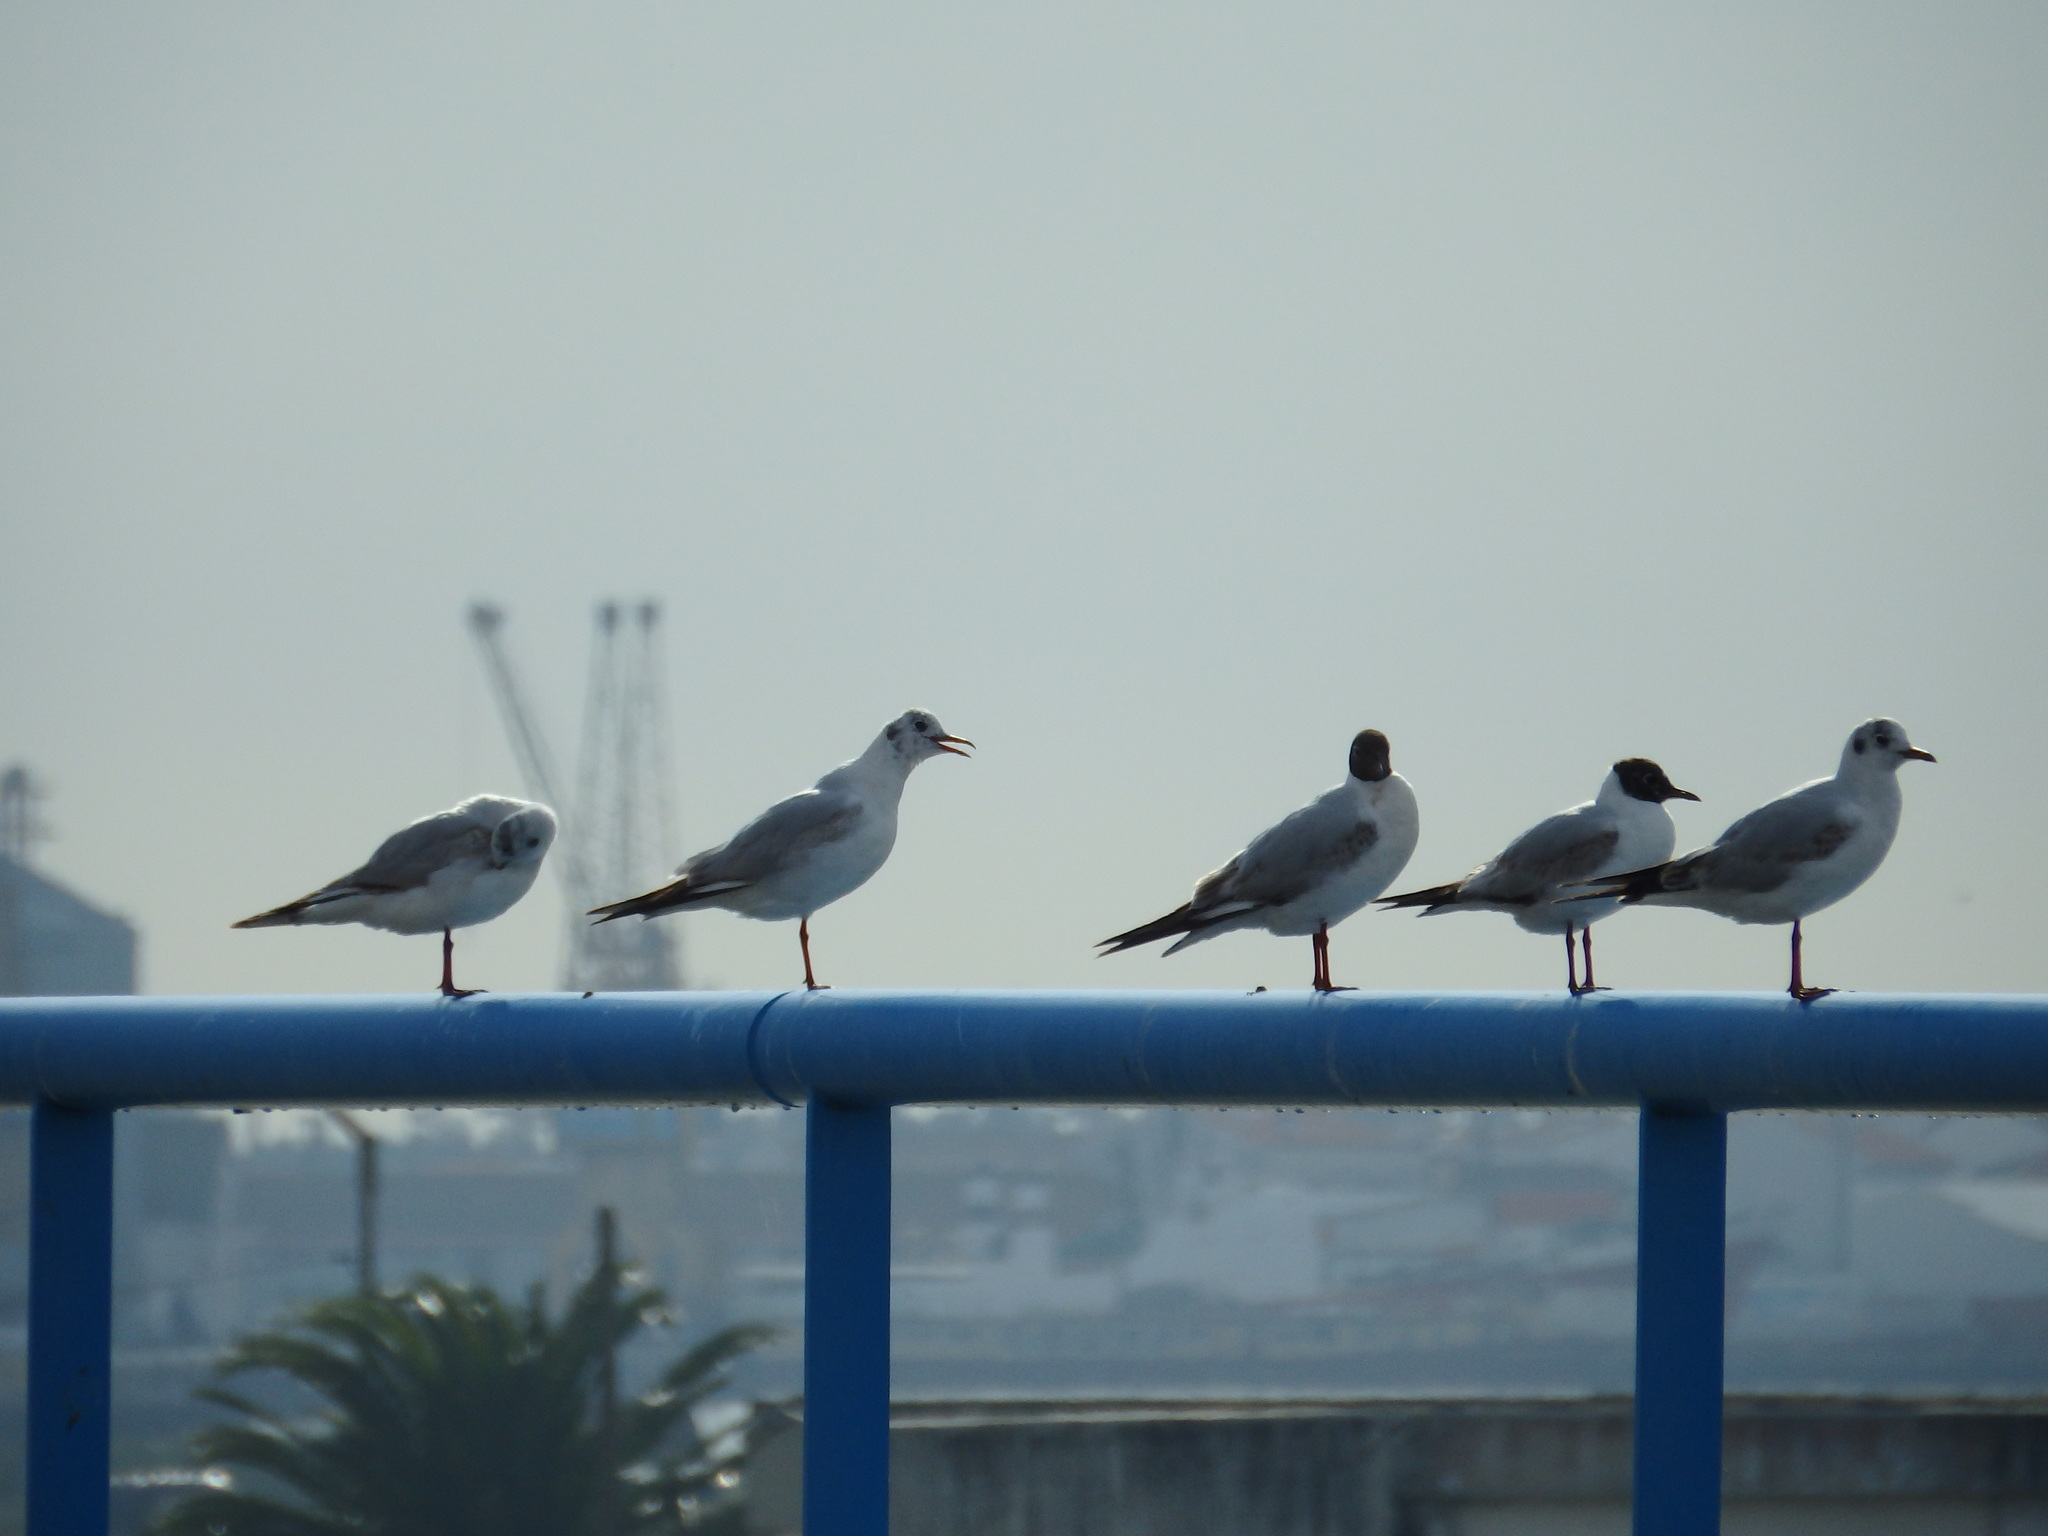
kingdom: Animalia
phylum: Chordata
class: Aves
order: Charadriiformes
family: Laridae
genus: Chroicocephalus
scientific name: Chroicocephalus ridibundus
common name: Black-headed gull
